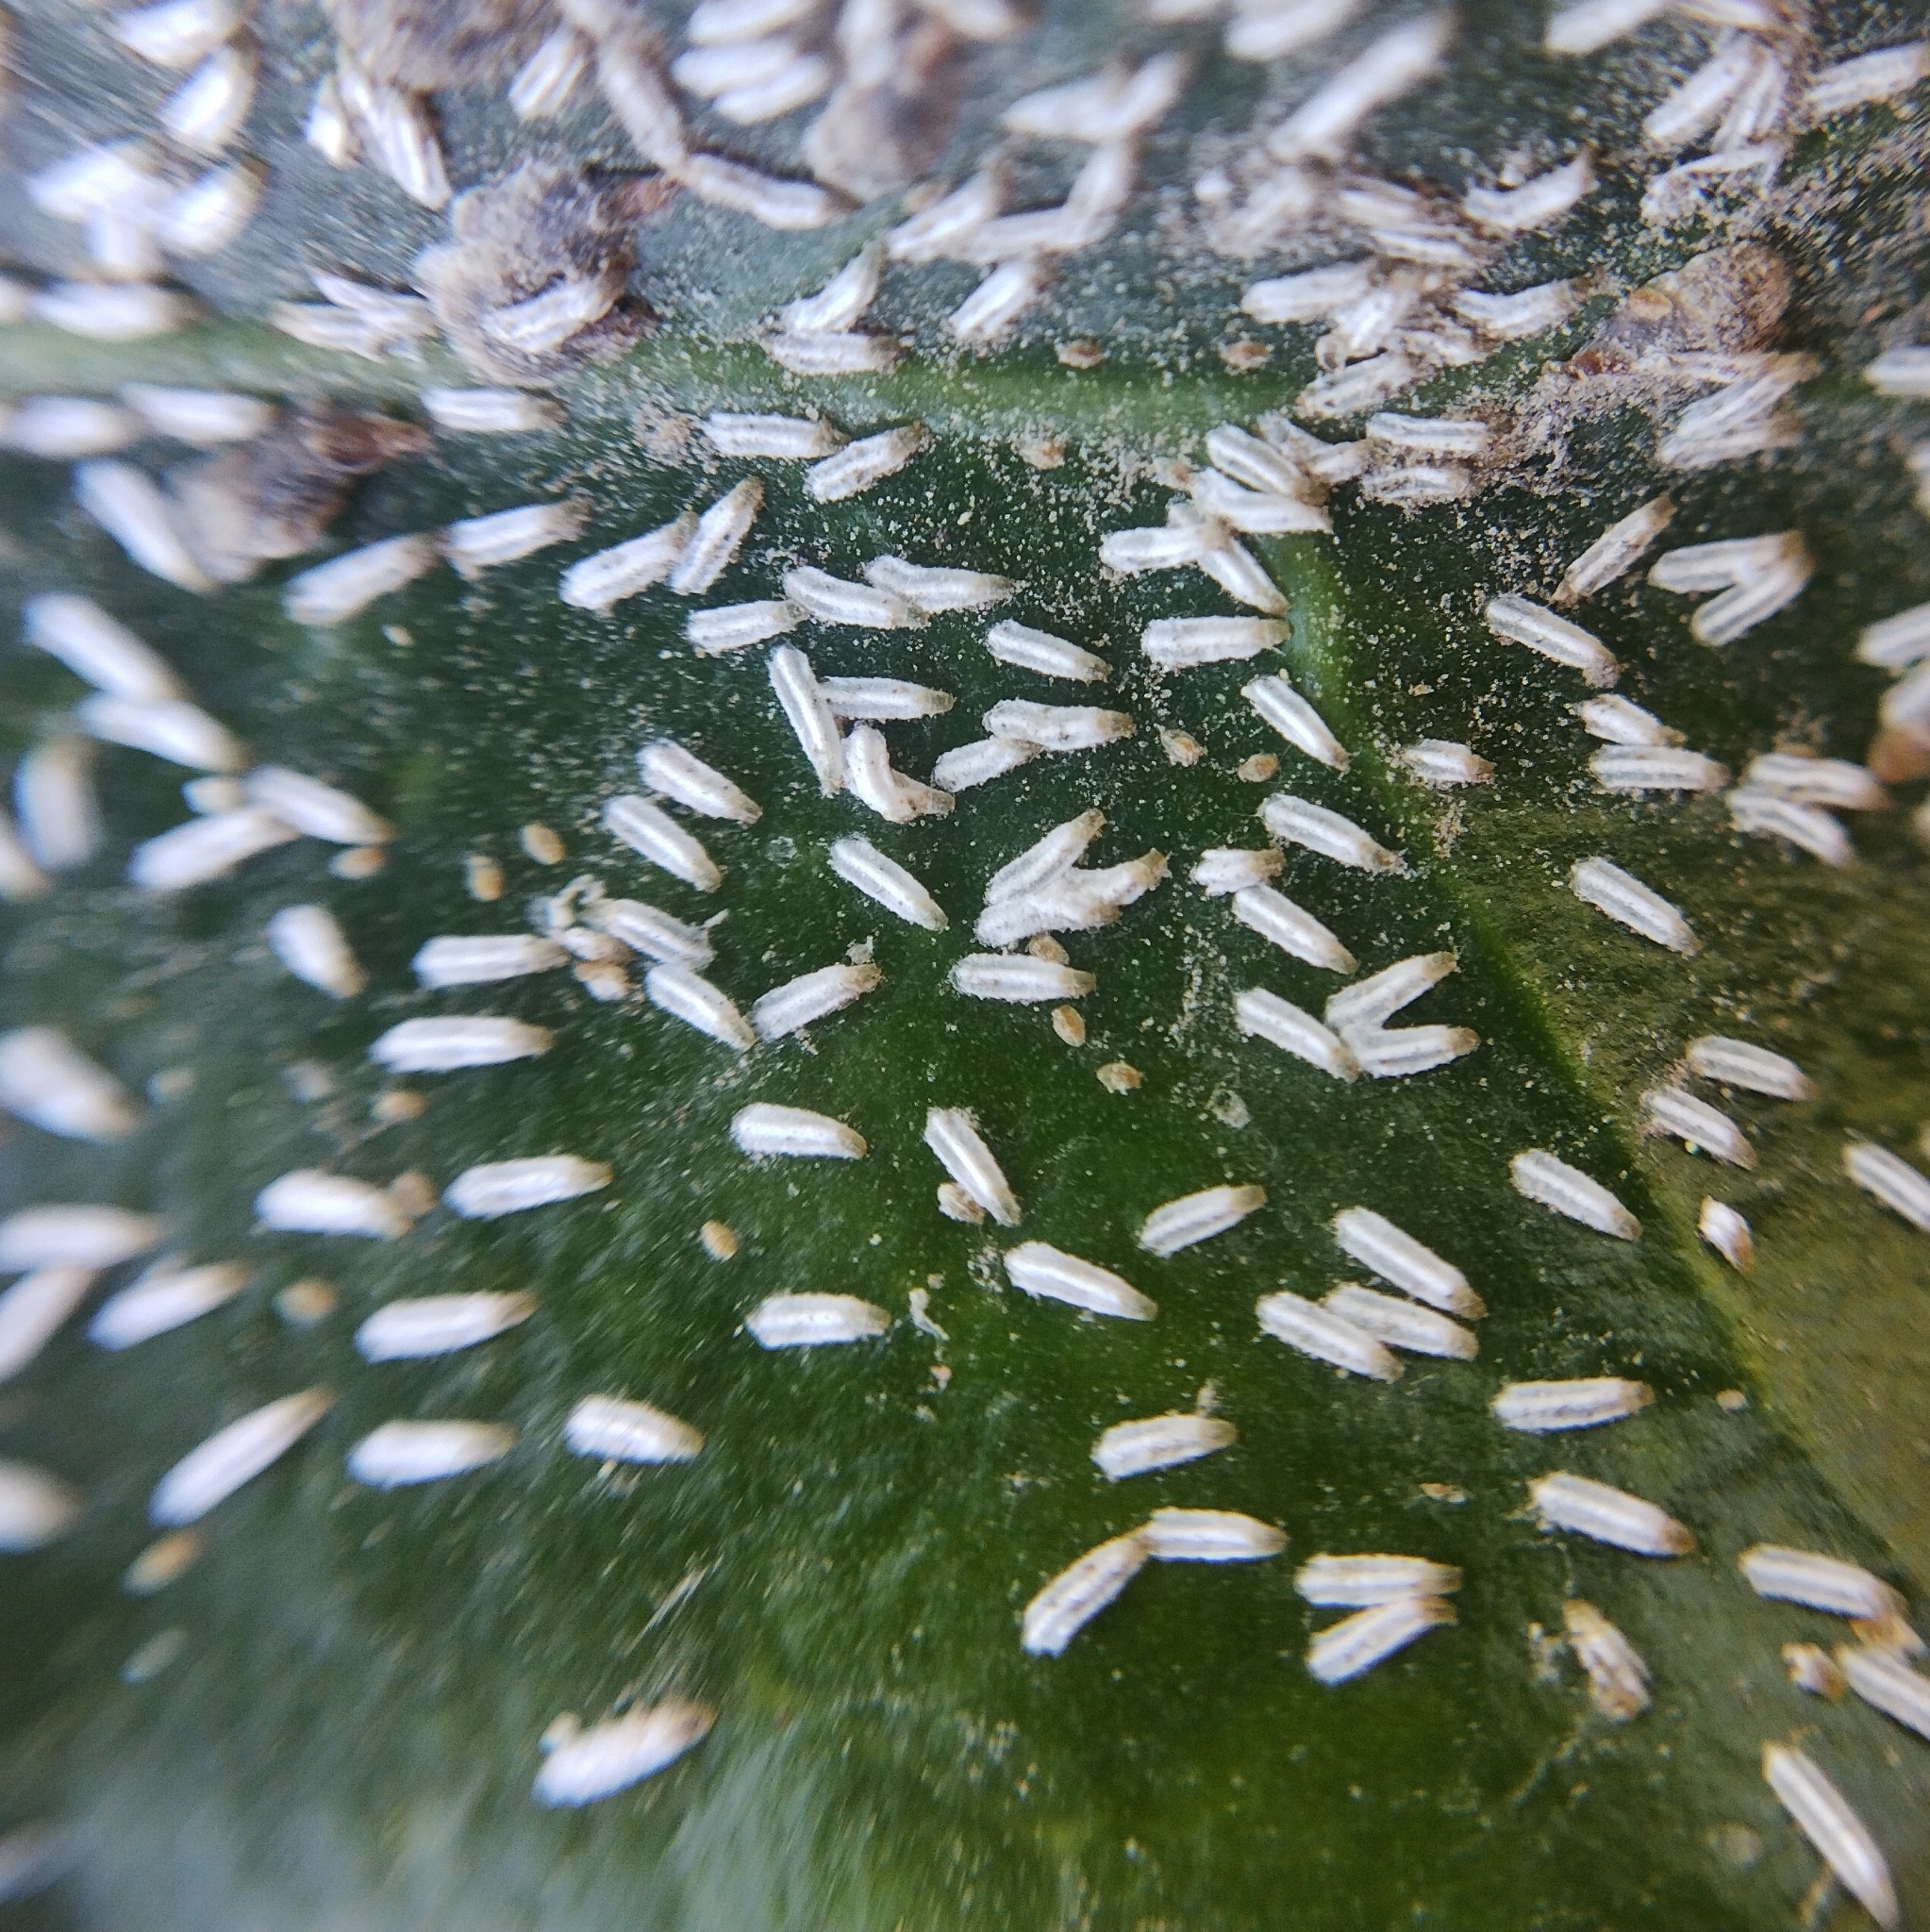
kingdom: Animalia
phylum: Arthropoda
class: Insecta
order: Hemiptera
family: Diaspididae
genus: Unaspis
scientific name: Unaspis euonymi
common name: Euonymus scale
